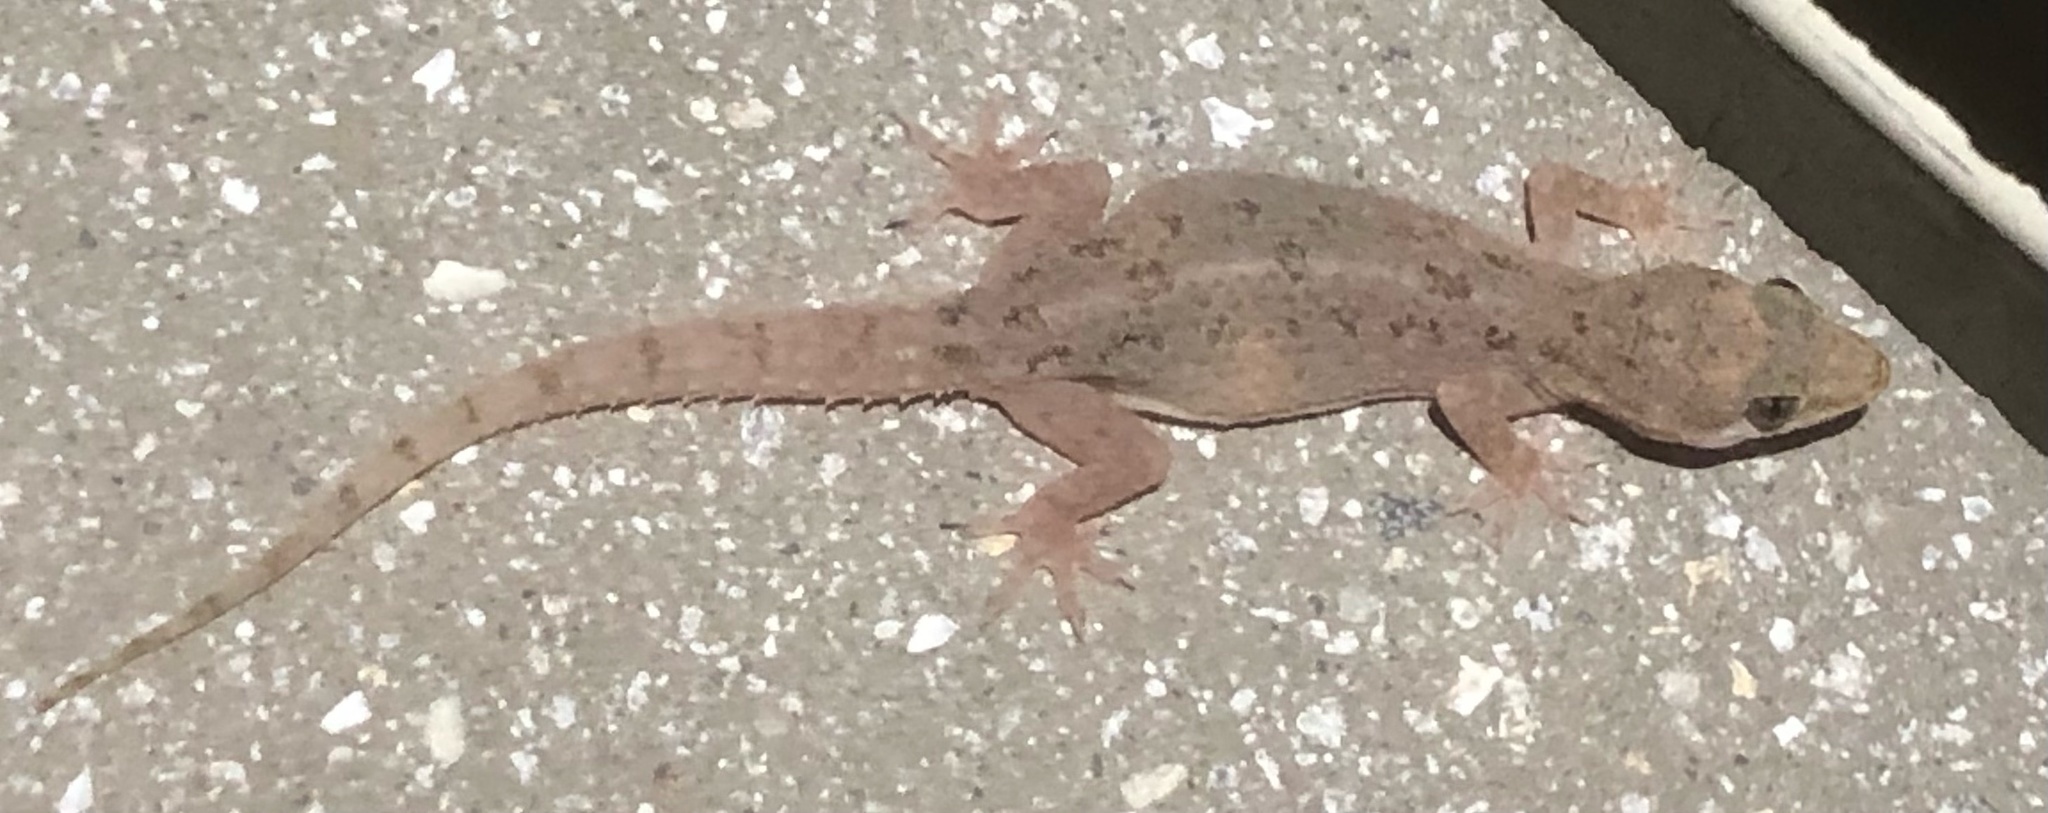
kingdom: Animalia
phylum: Chordata
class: Squamata
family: Gekkonidae
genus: Hemidactylus
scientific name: Hemidactylus parvimaculatus
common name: Spotted house gecko
